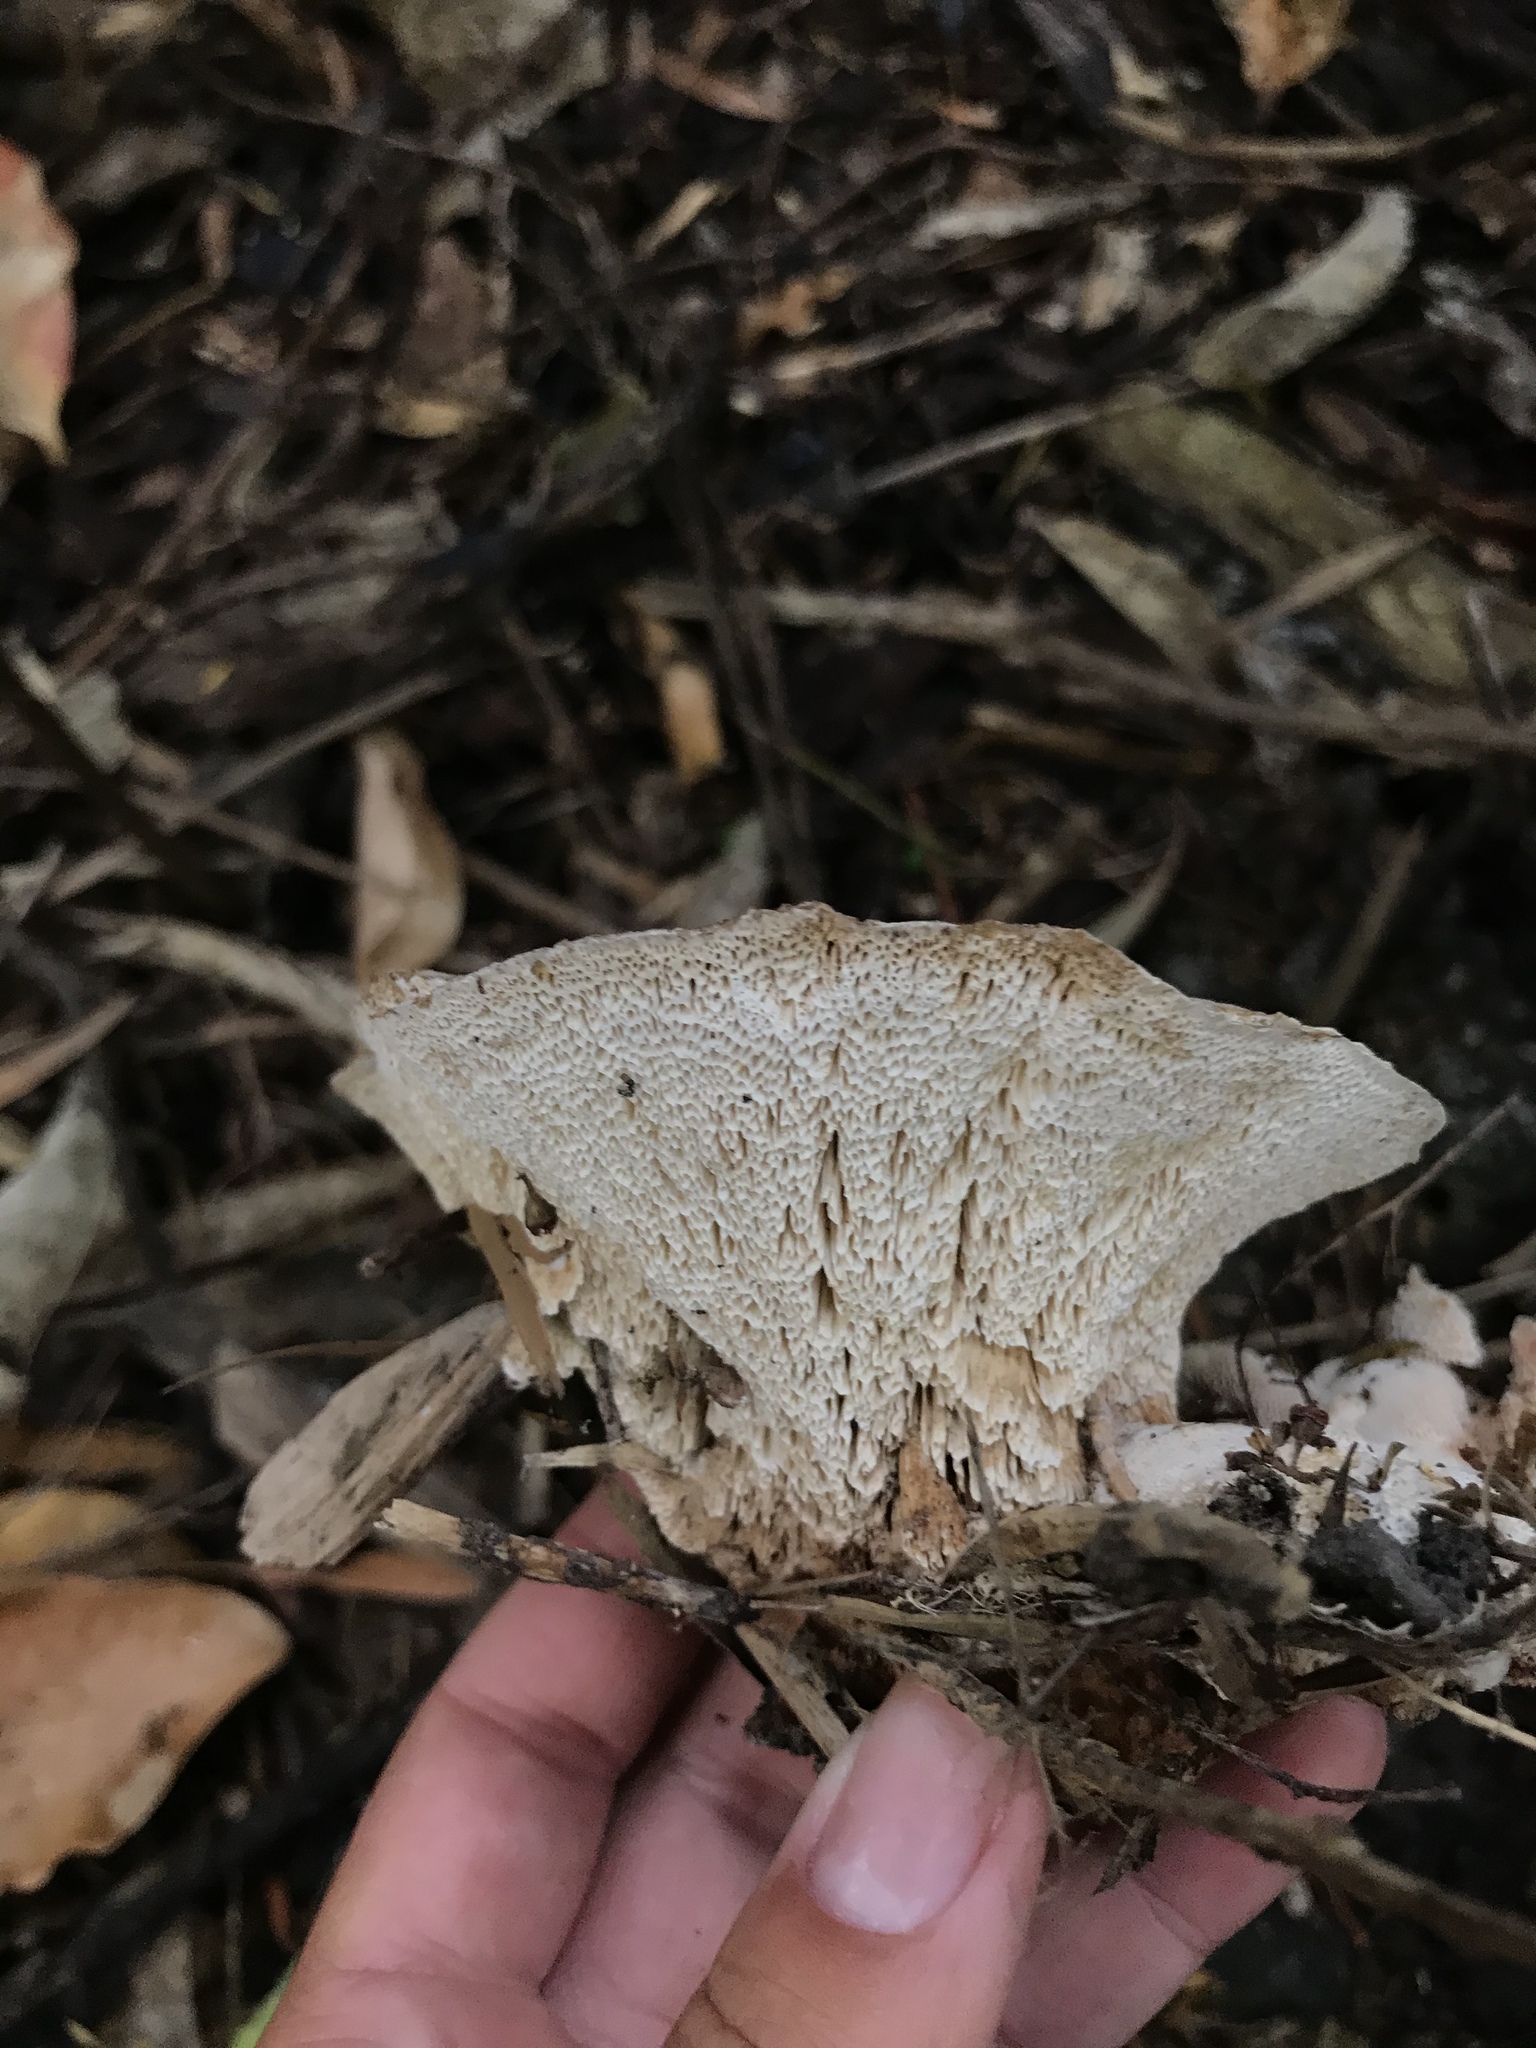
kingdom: Fungi
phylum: Basidiomycota
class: Agaricomycetes
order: Polyporales
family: Podoscyphaceae
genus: Abortiporus
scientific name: Abortiporus biennis
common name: Blushing rosette
